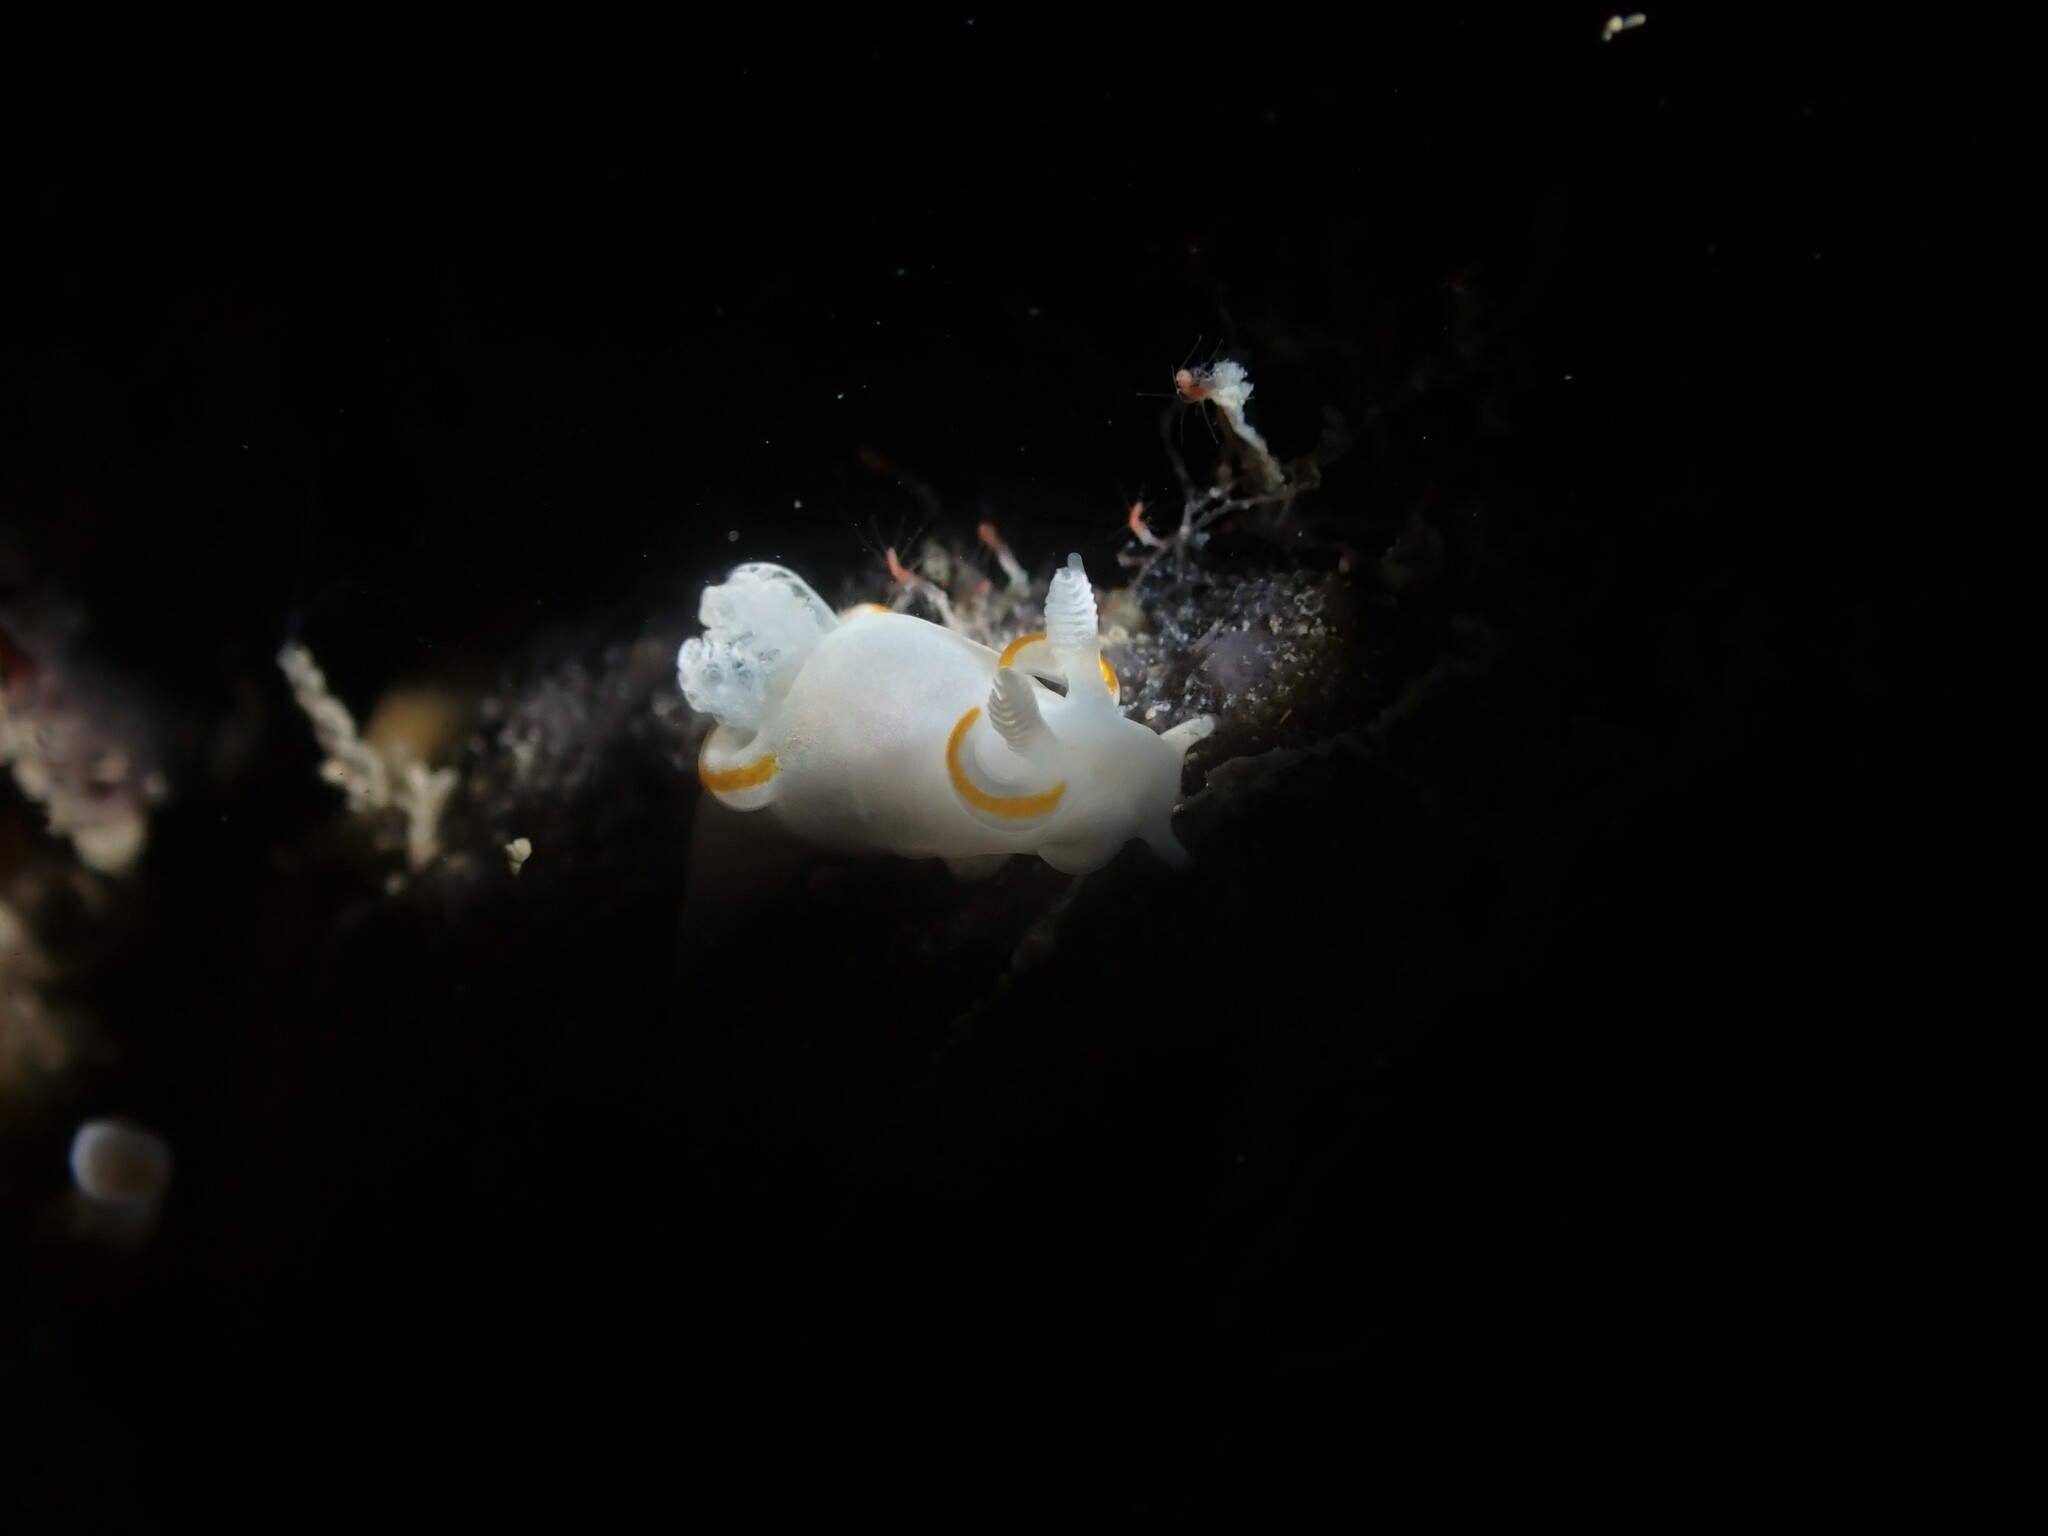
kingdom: Animalia
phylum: Mollusca
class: Gastropoda
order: Nudibranchia
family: Goniodorididae
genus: Trapania
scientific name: Trapania rudmani
